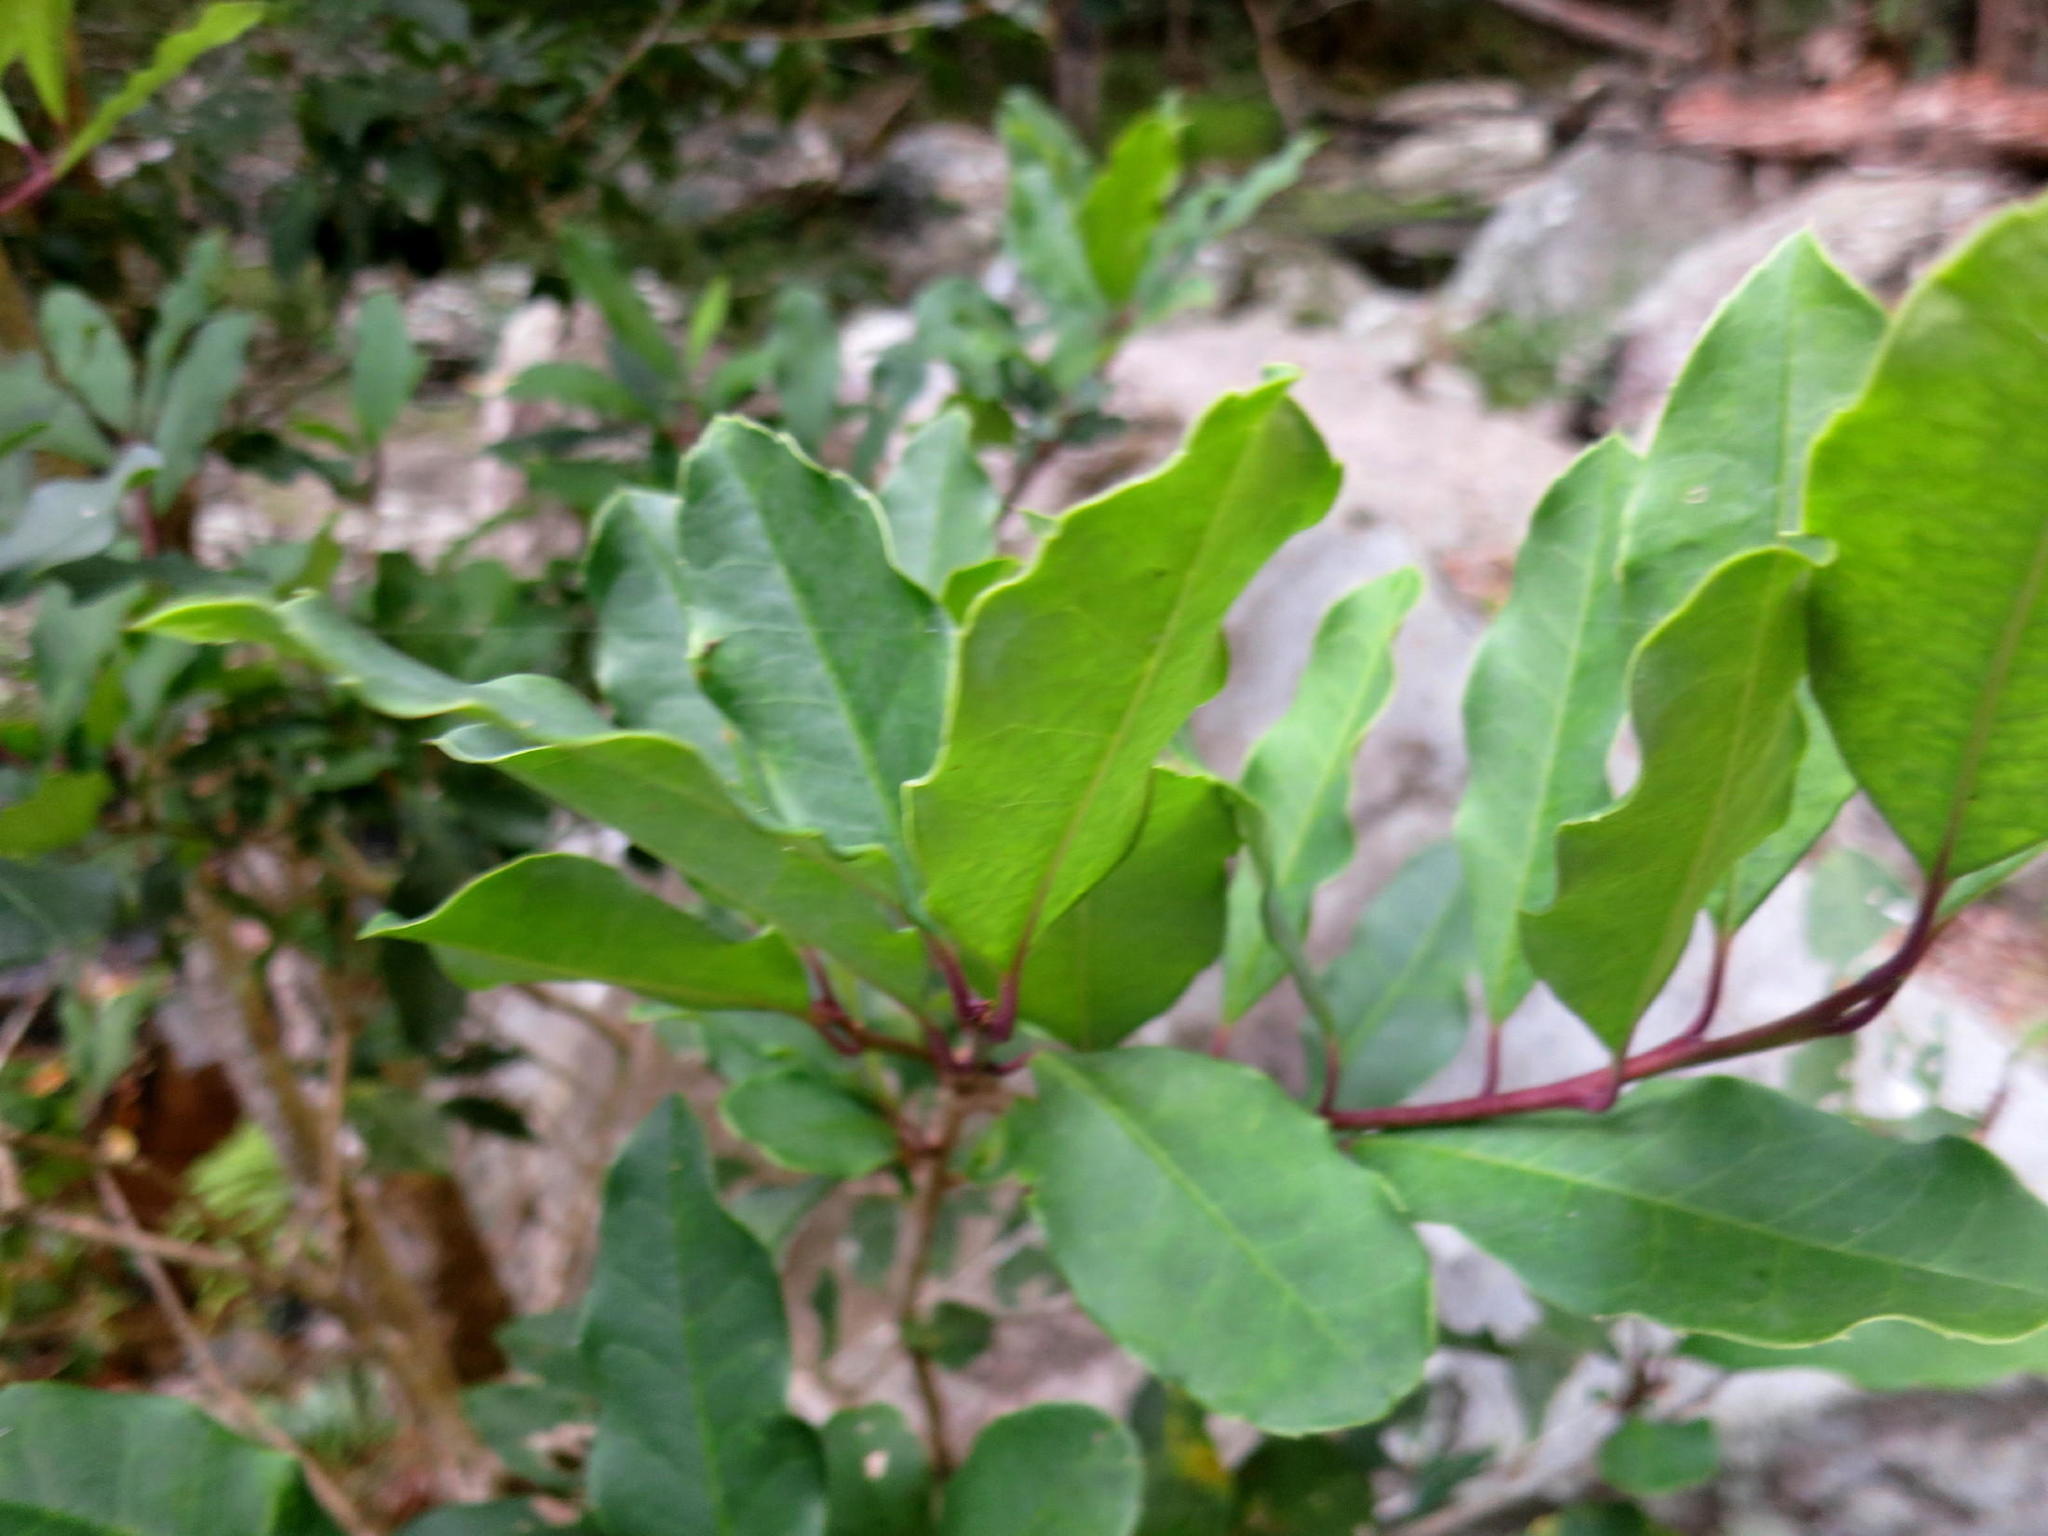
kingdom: Plantae
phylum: Tracheophyta
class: Magnoliopsida
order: Aquifoliales
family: Aquifoliaceae
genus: Ilex
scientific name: Ilex mitis
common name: African holly
